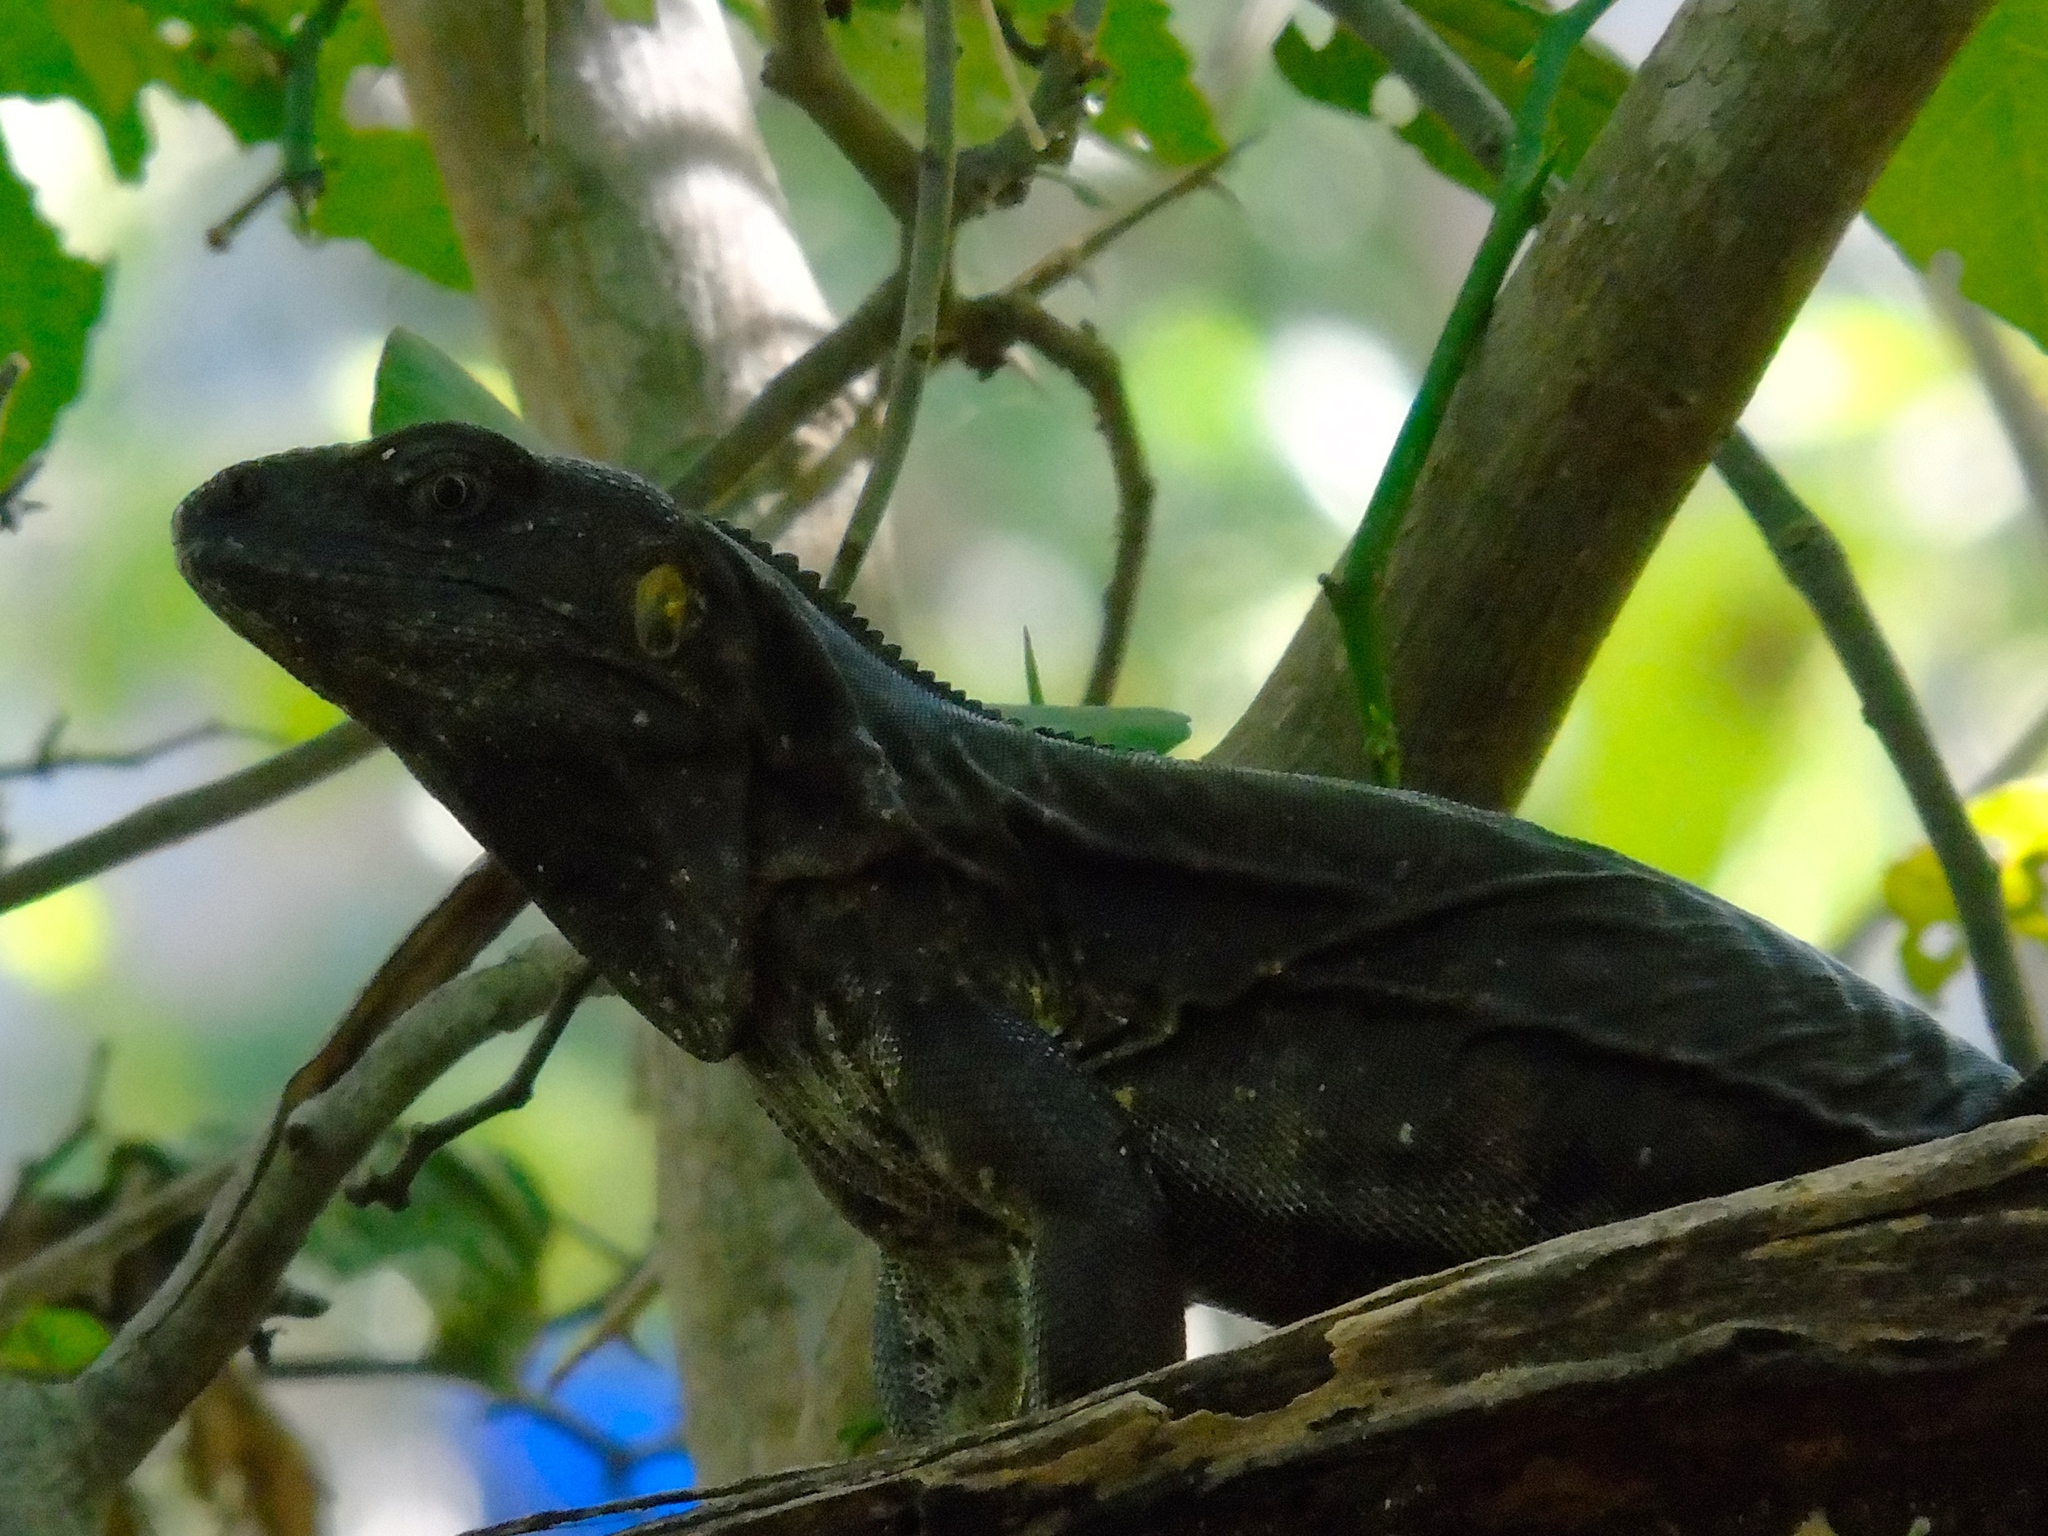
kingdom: Animalia
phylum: Chordata
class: Squamata
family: Iguanidae
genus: Ctenosaura
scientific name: Ctenosaura pectinata
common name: Guerreran spiny-tailed iguana
